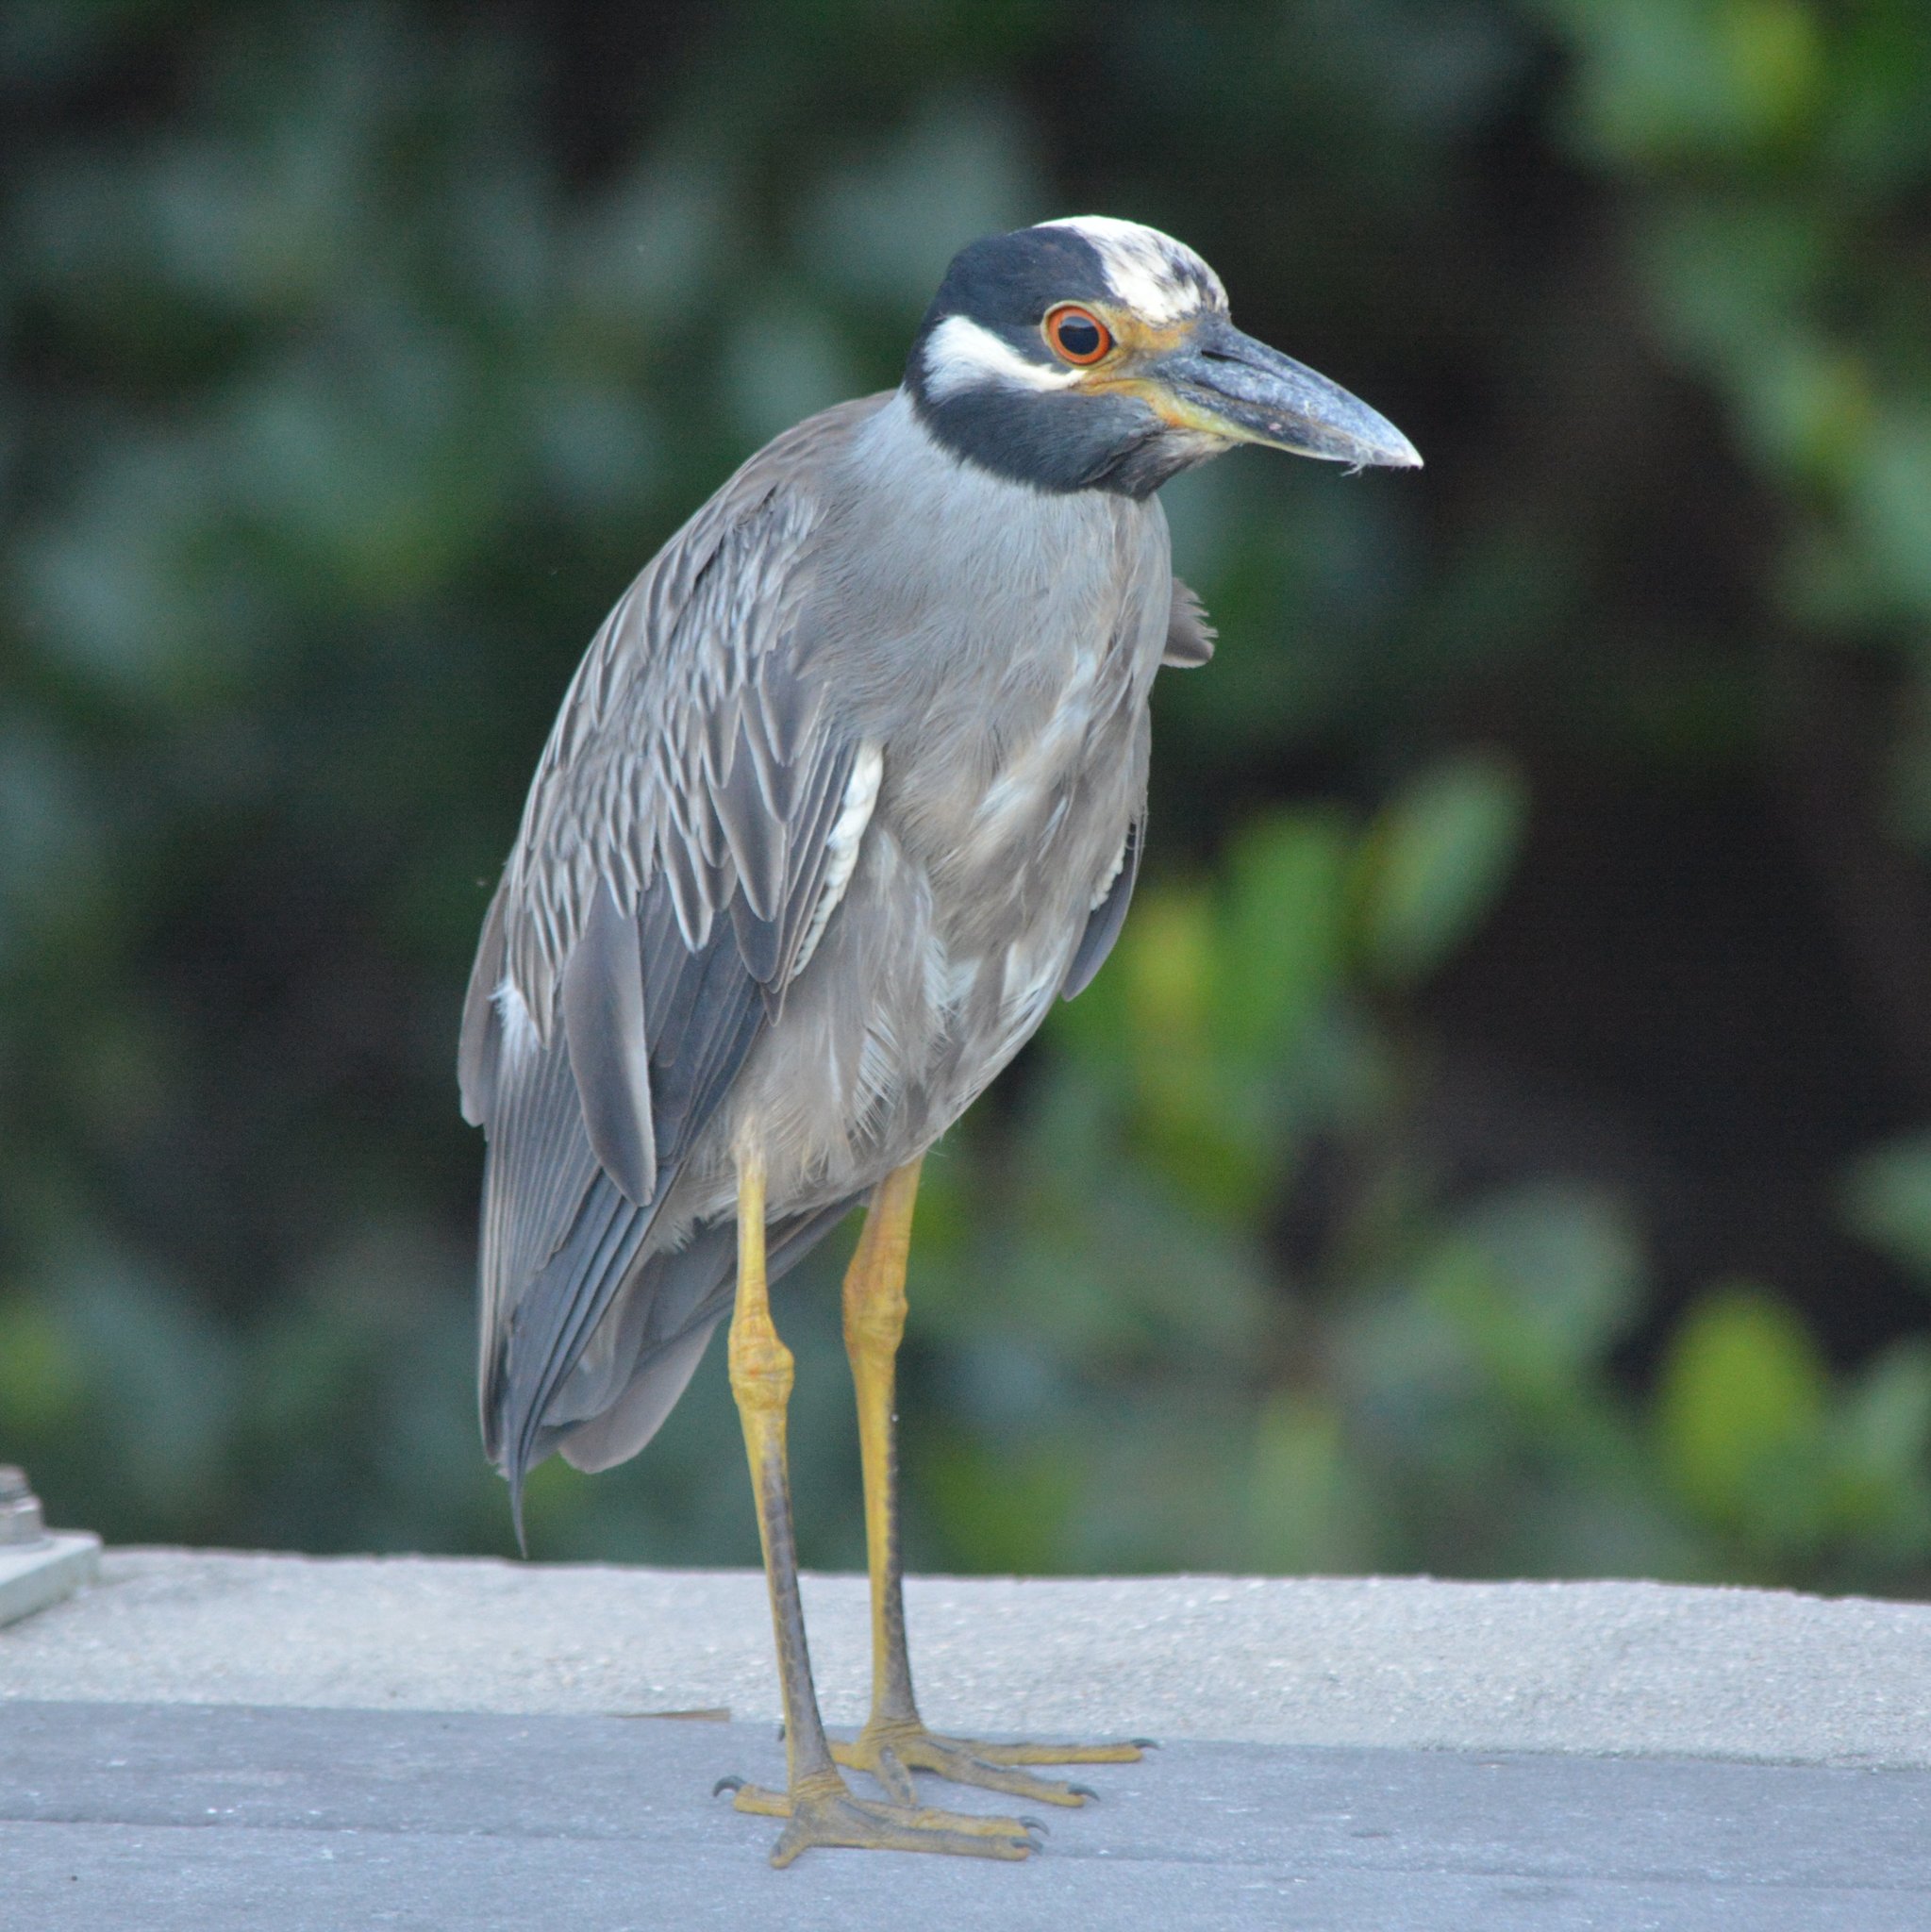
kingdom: Animalia
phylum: Chordata
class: Aves
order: Pelecaniformes
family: Ardeidae
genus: Nyctanassa
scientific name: Nyctanassa violacea
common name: Yellow-crowned night heron
